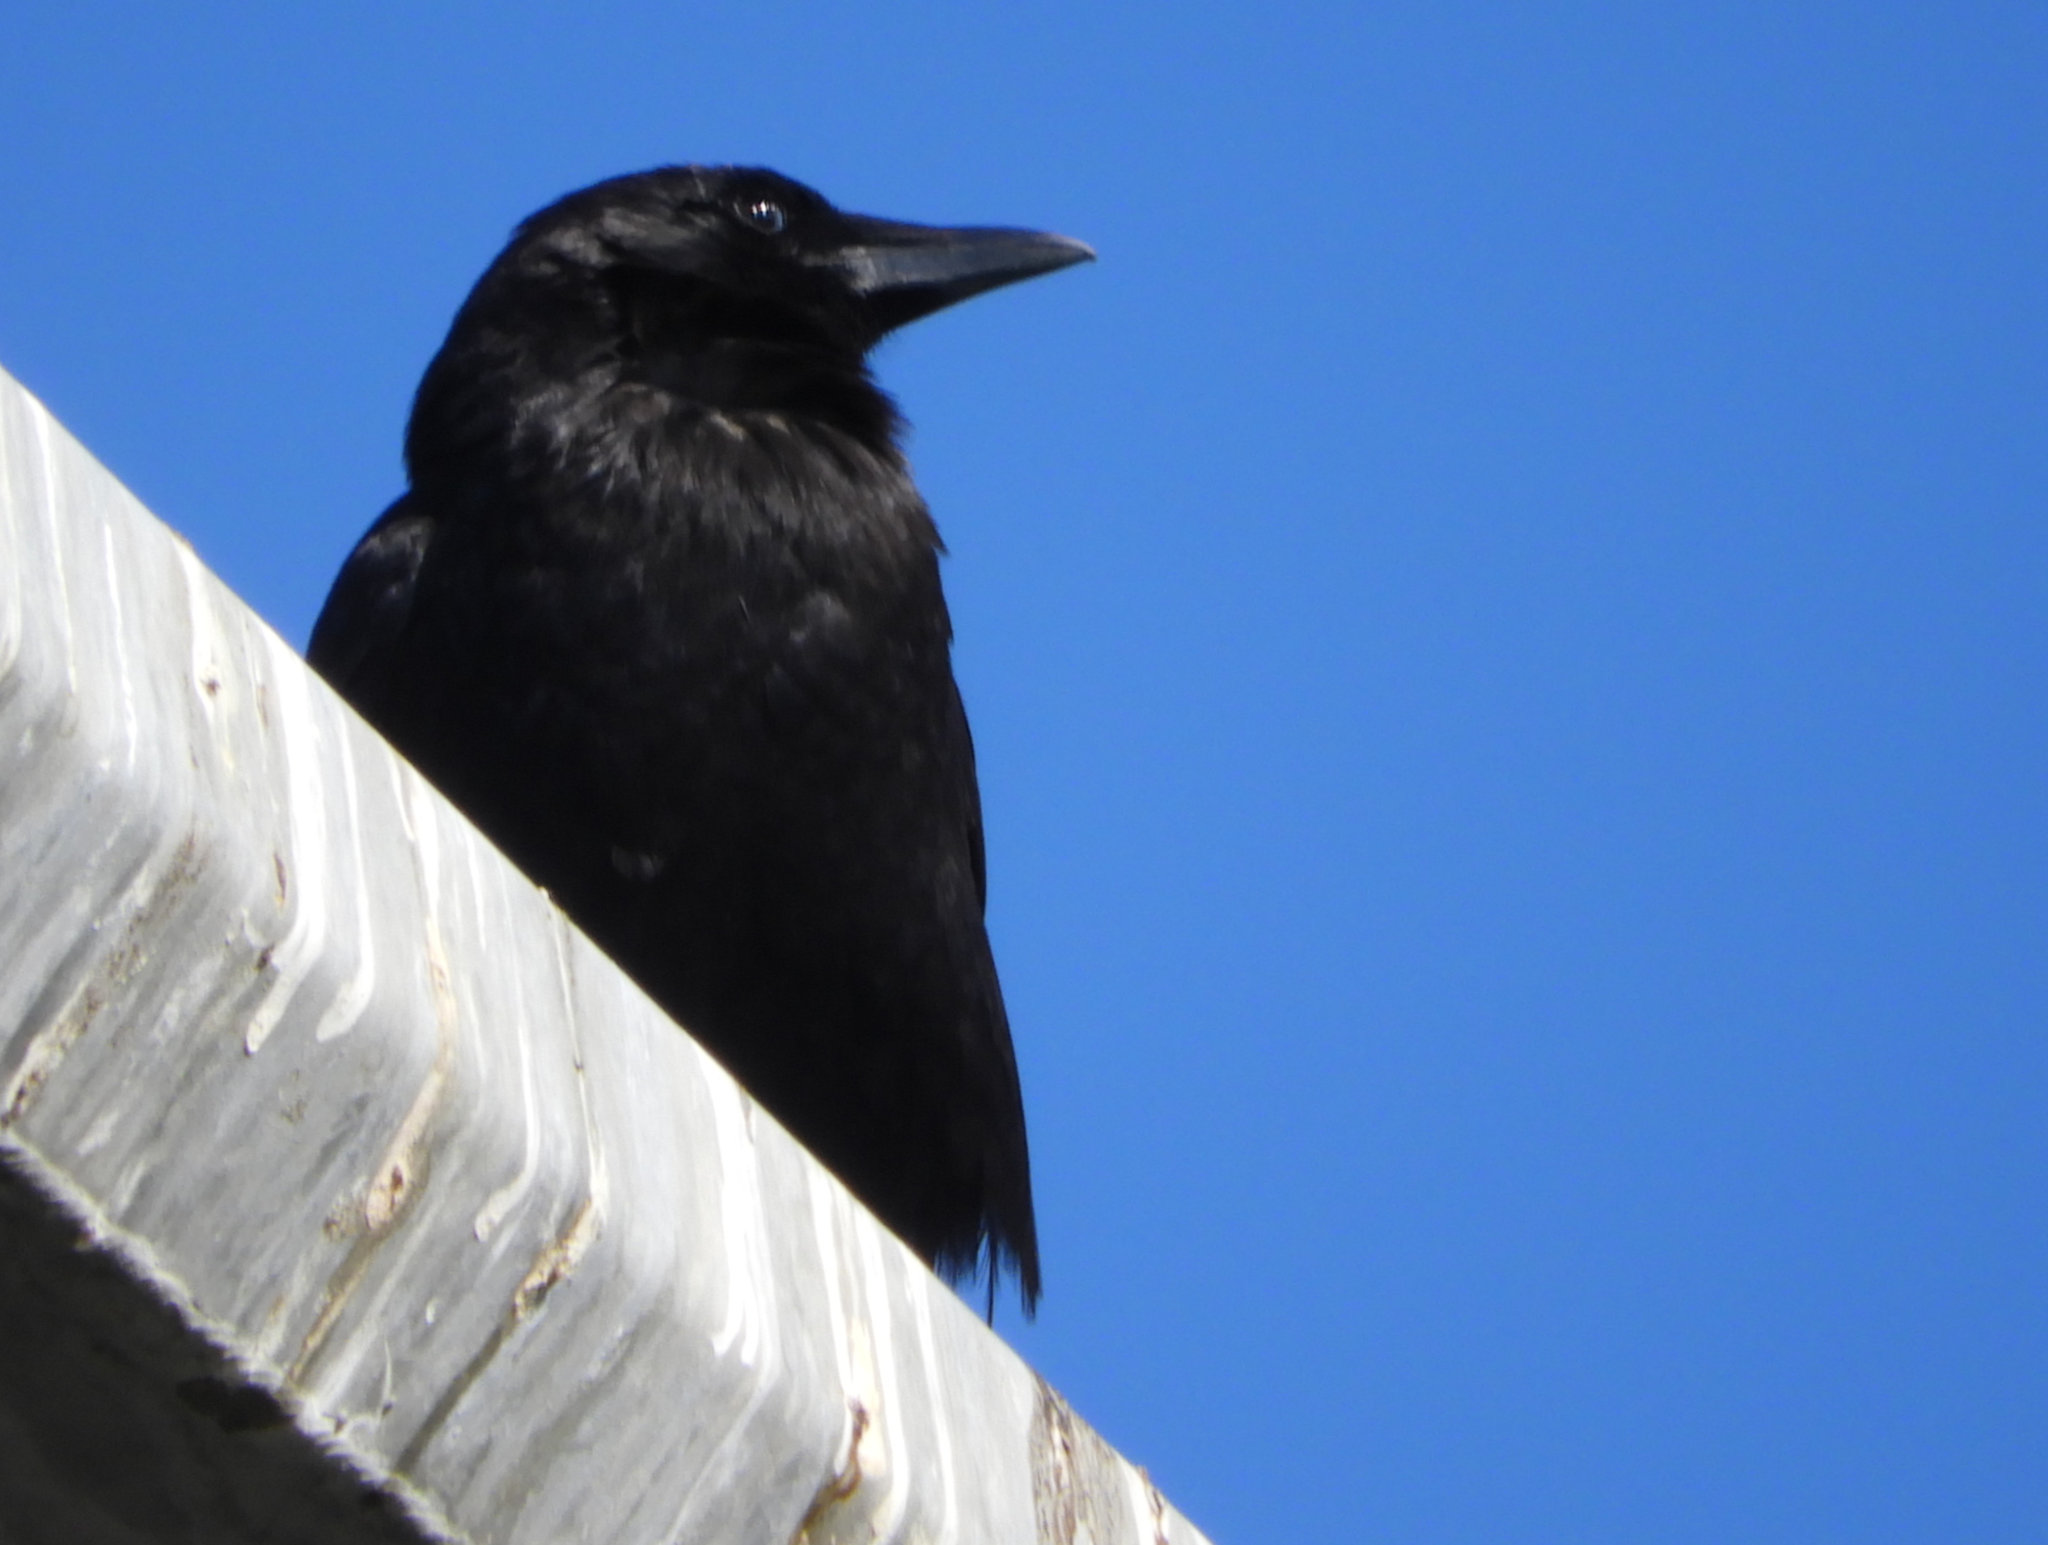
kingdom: Animalia
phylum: Chordata
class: Aves
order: Passeriformes
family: Corvidae
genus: Corvus
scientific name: Corvus brachyrhynchos
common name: American crow
